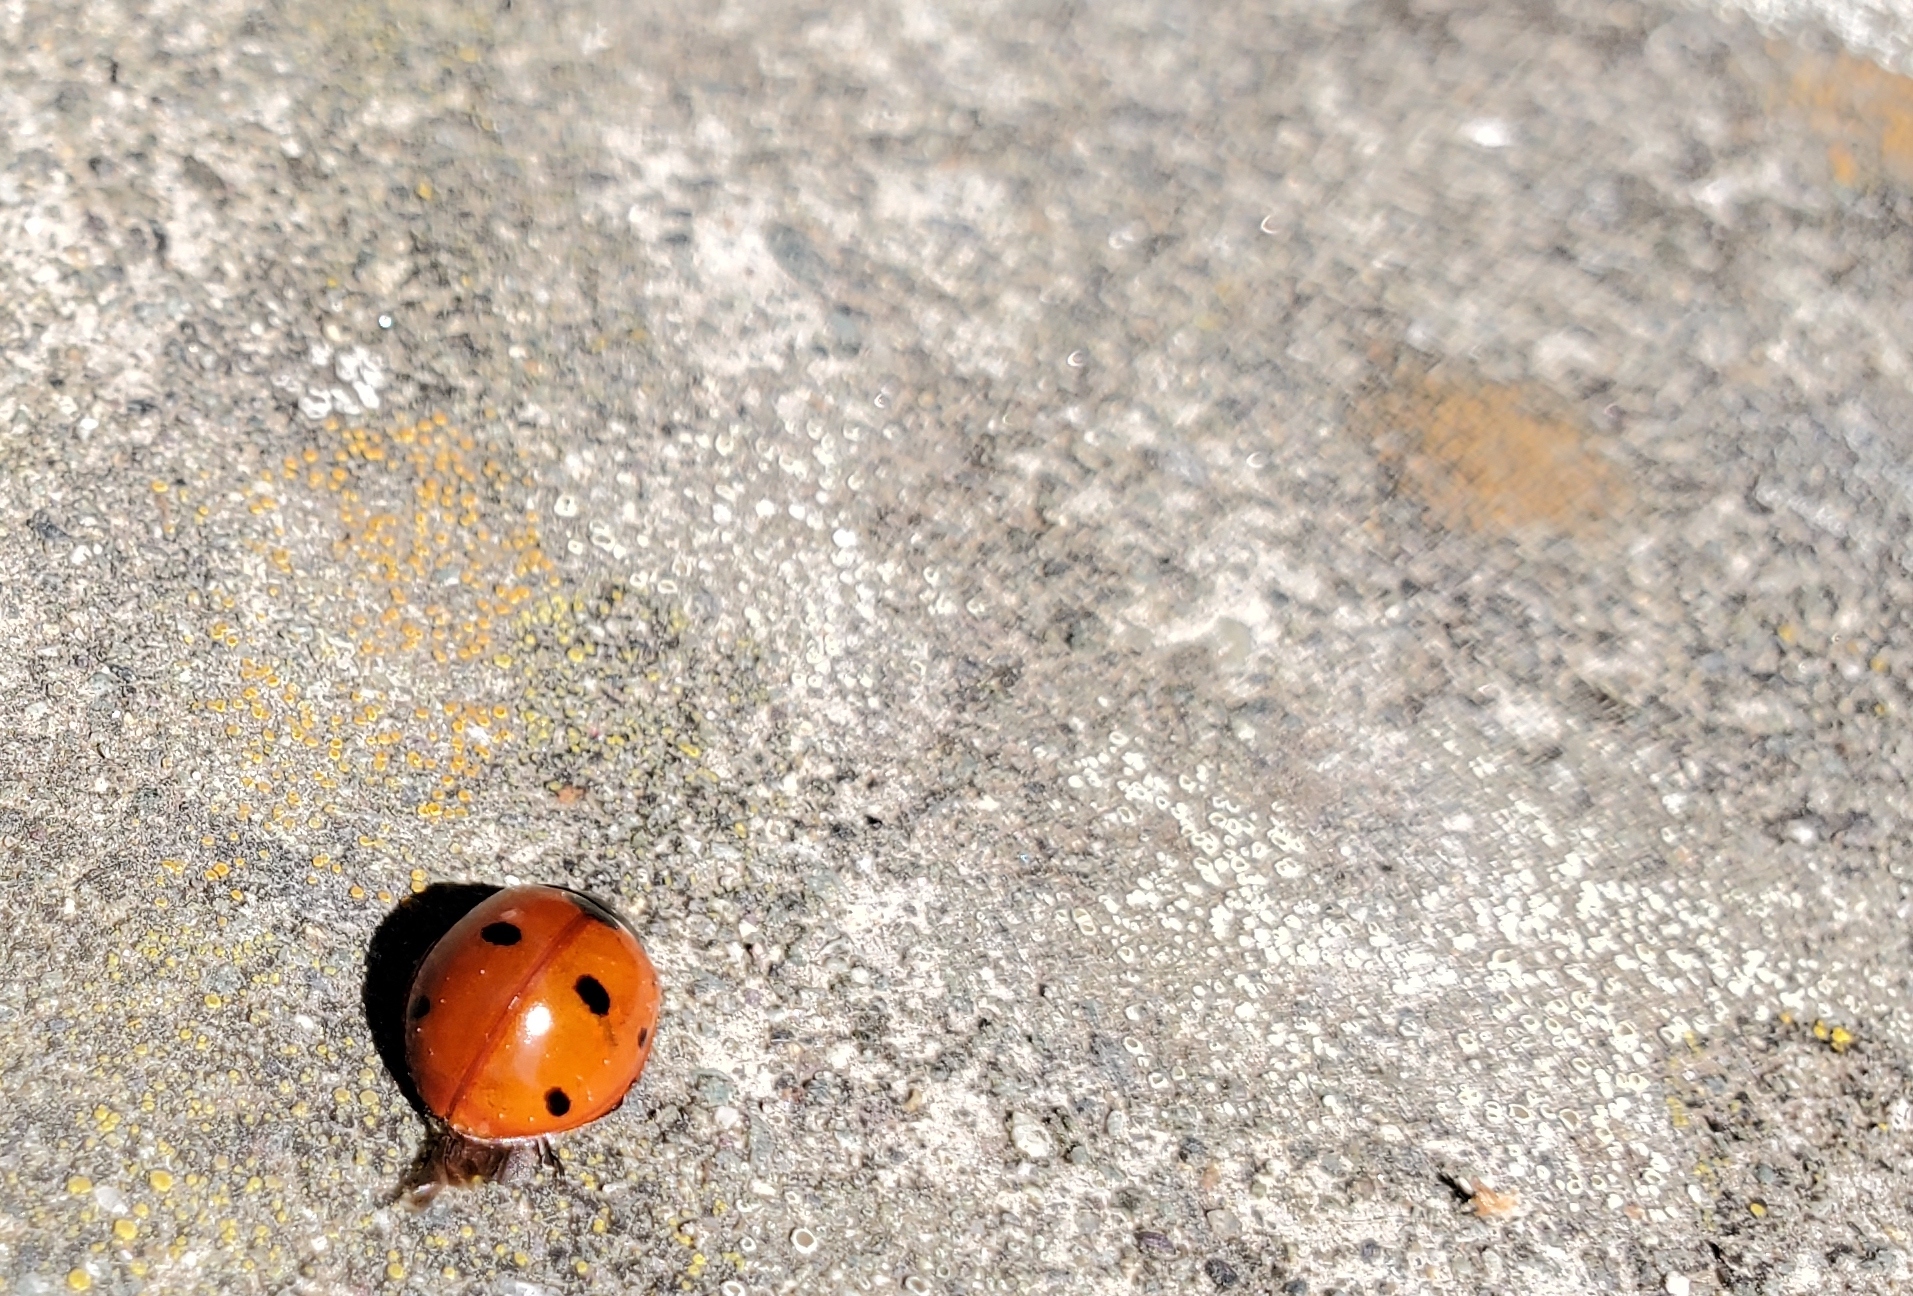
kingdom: Animalia
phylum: Arthropoda
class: Insecta
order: Coleoptera
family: Coccinellidae
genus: Coccinella
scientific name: Coccinella septempunctata
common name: Sevenspotted lady beetle
